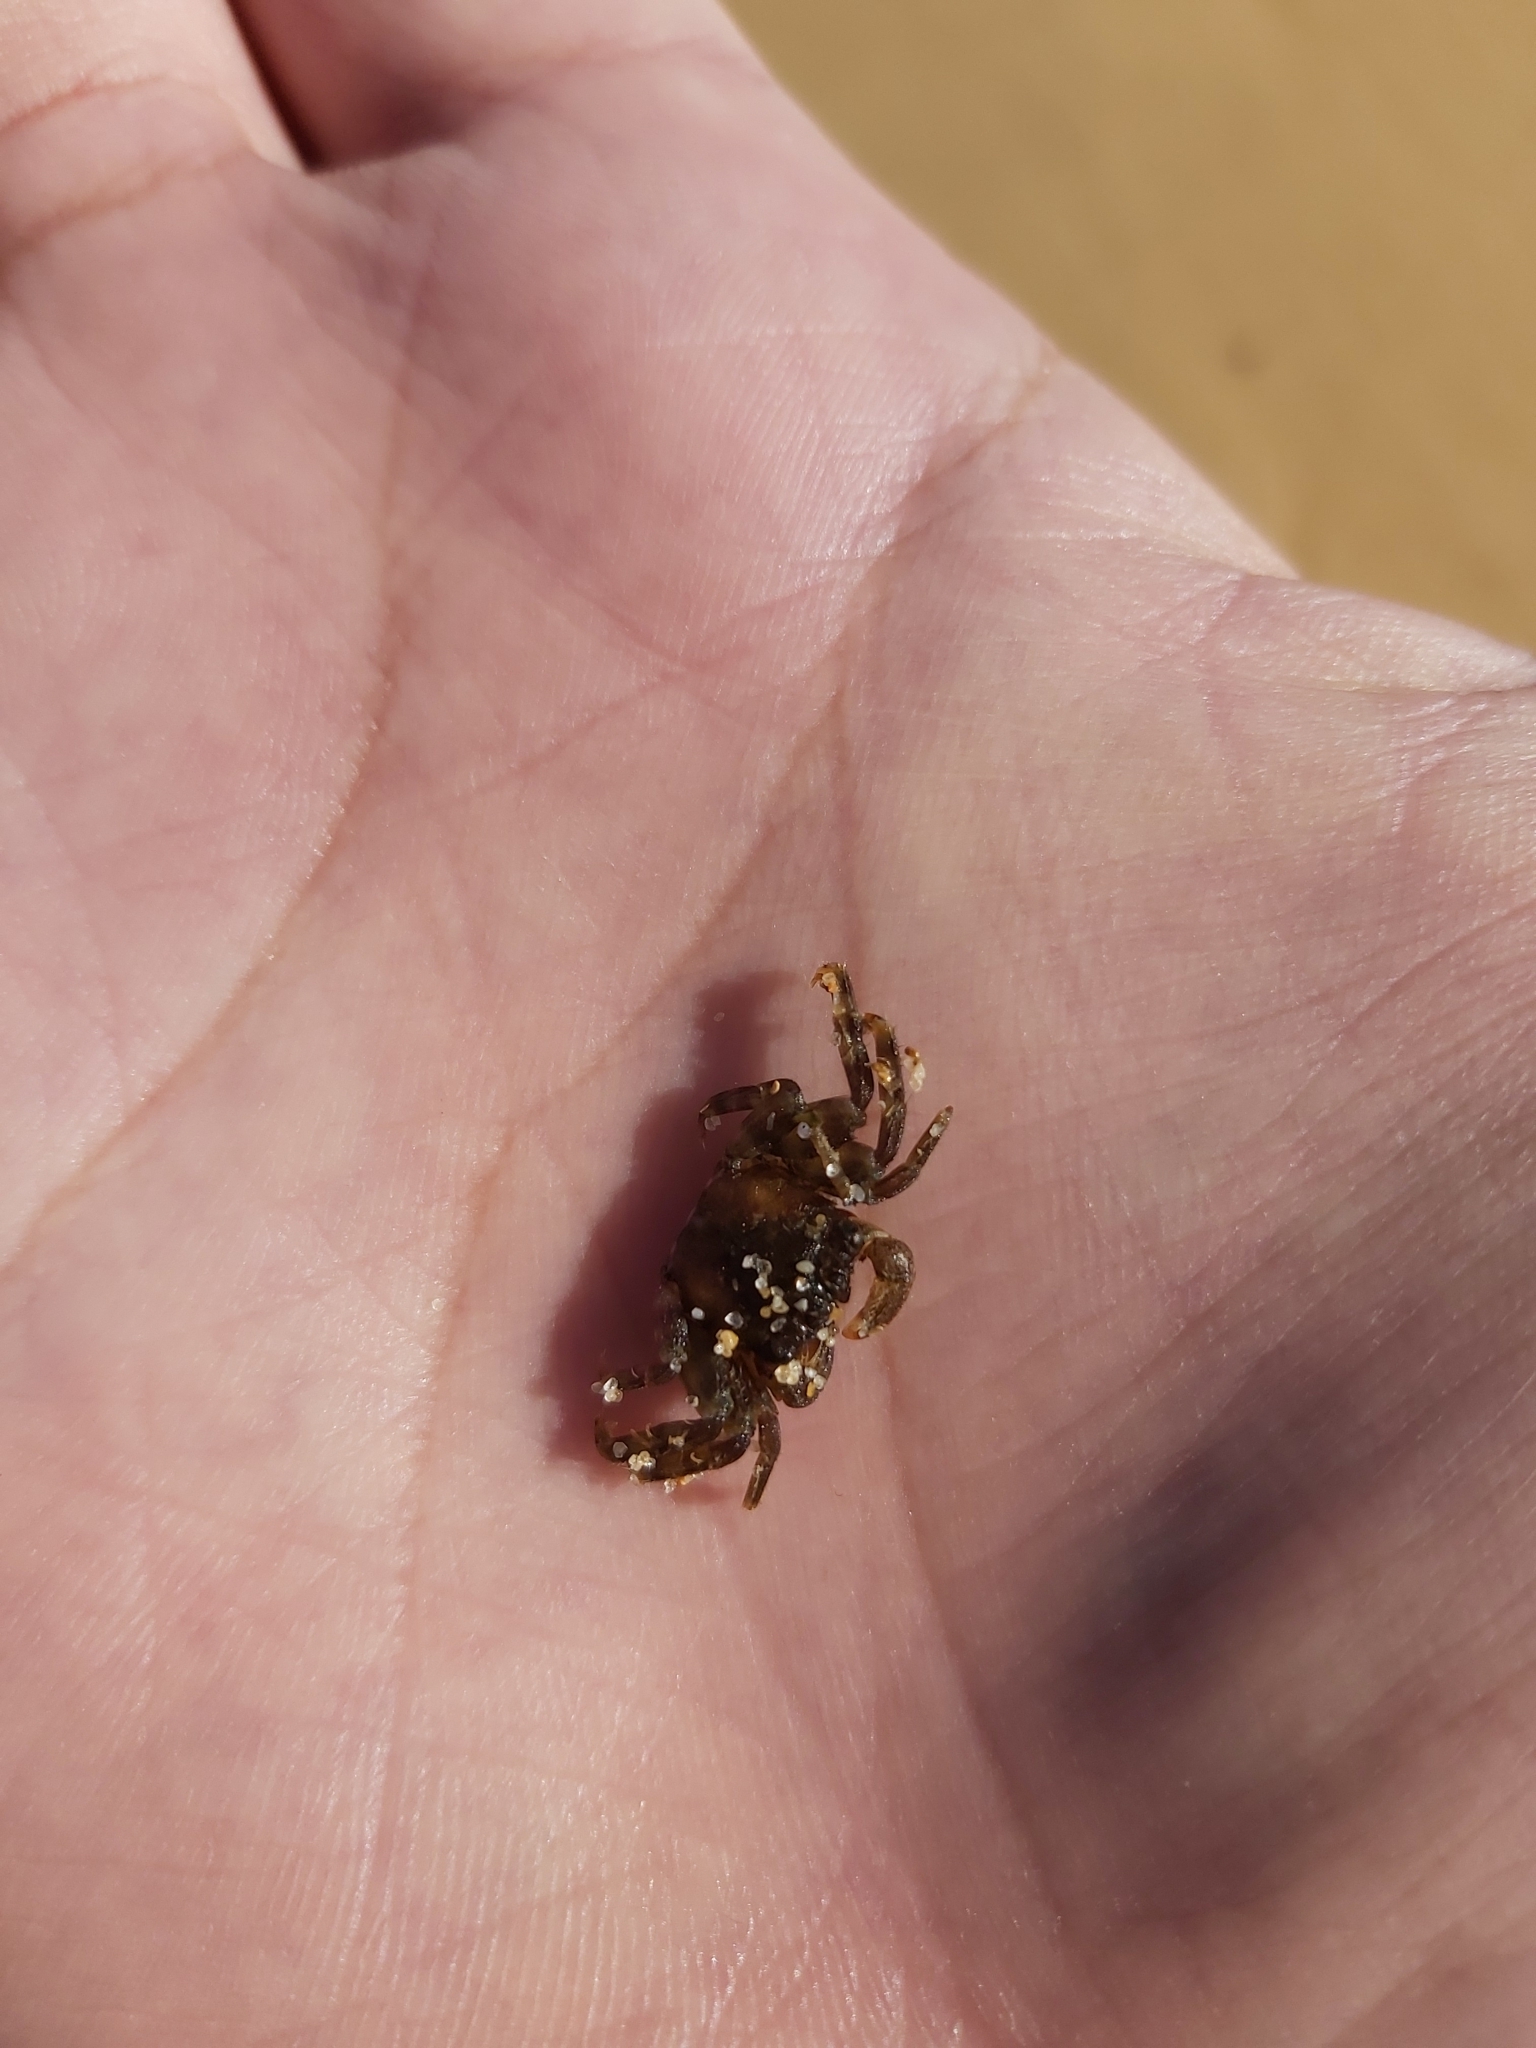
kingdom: Animalia
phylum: Arthropoda
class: Malacostraca
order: Decapoda
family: Plagusiidae
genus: Guinusia
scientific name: Guinusia chabrus
